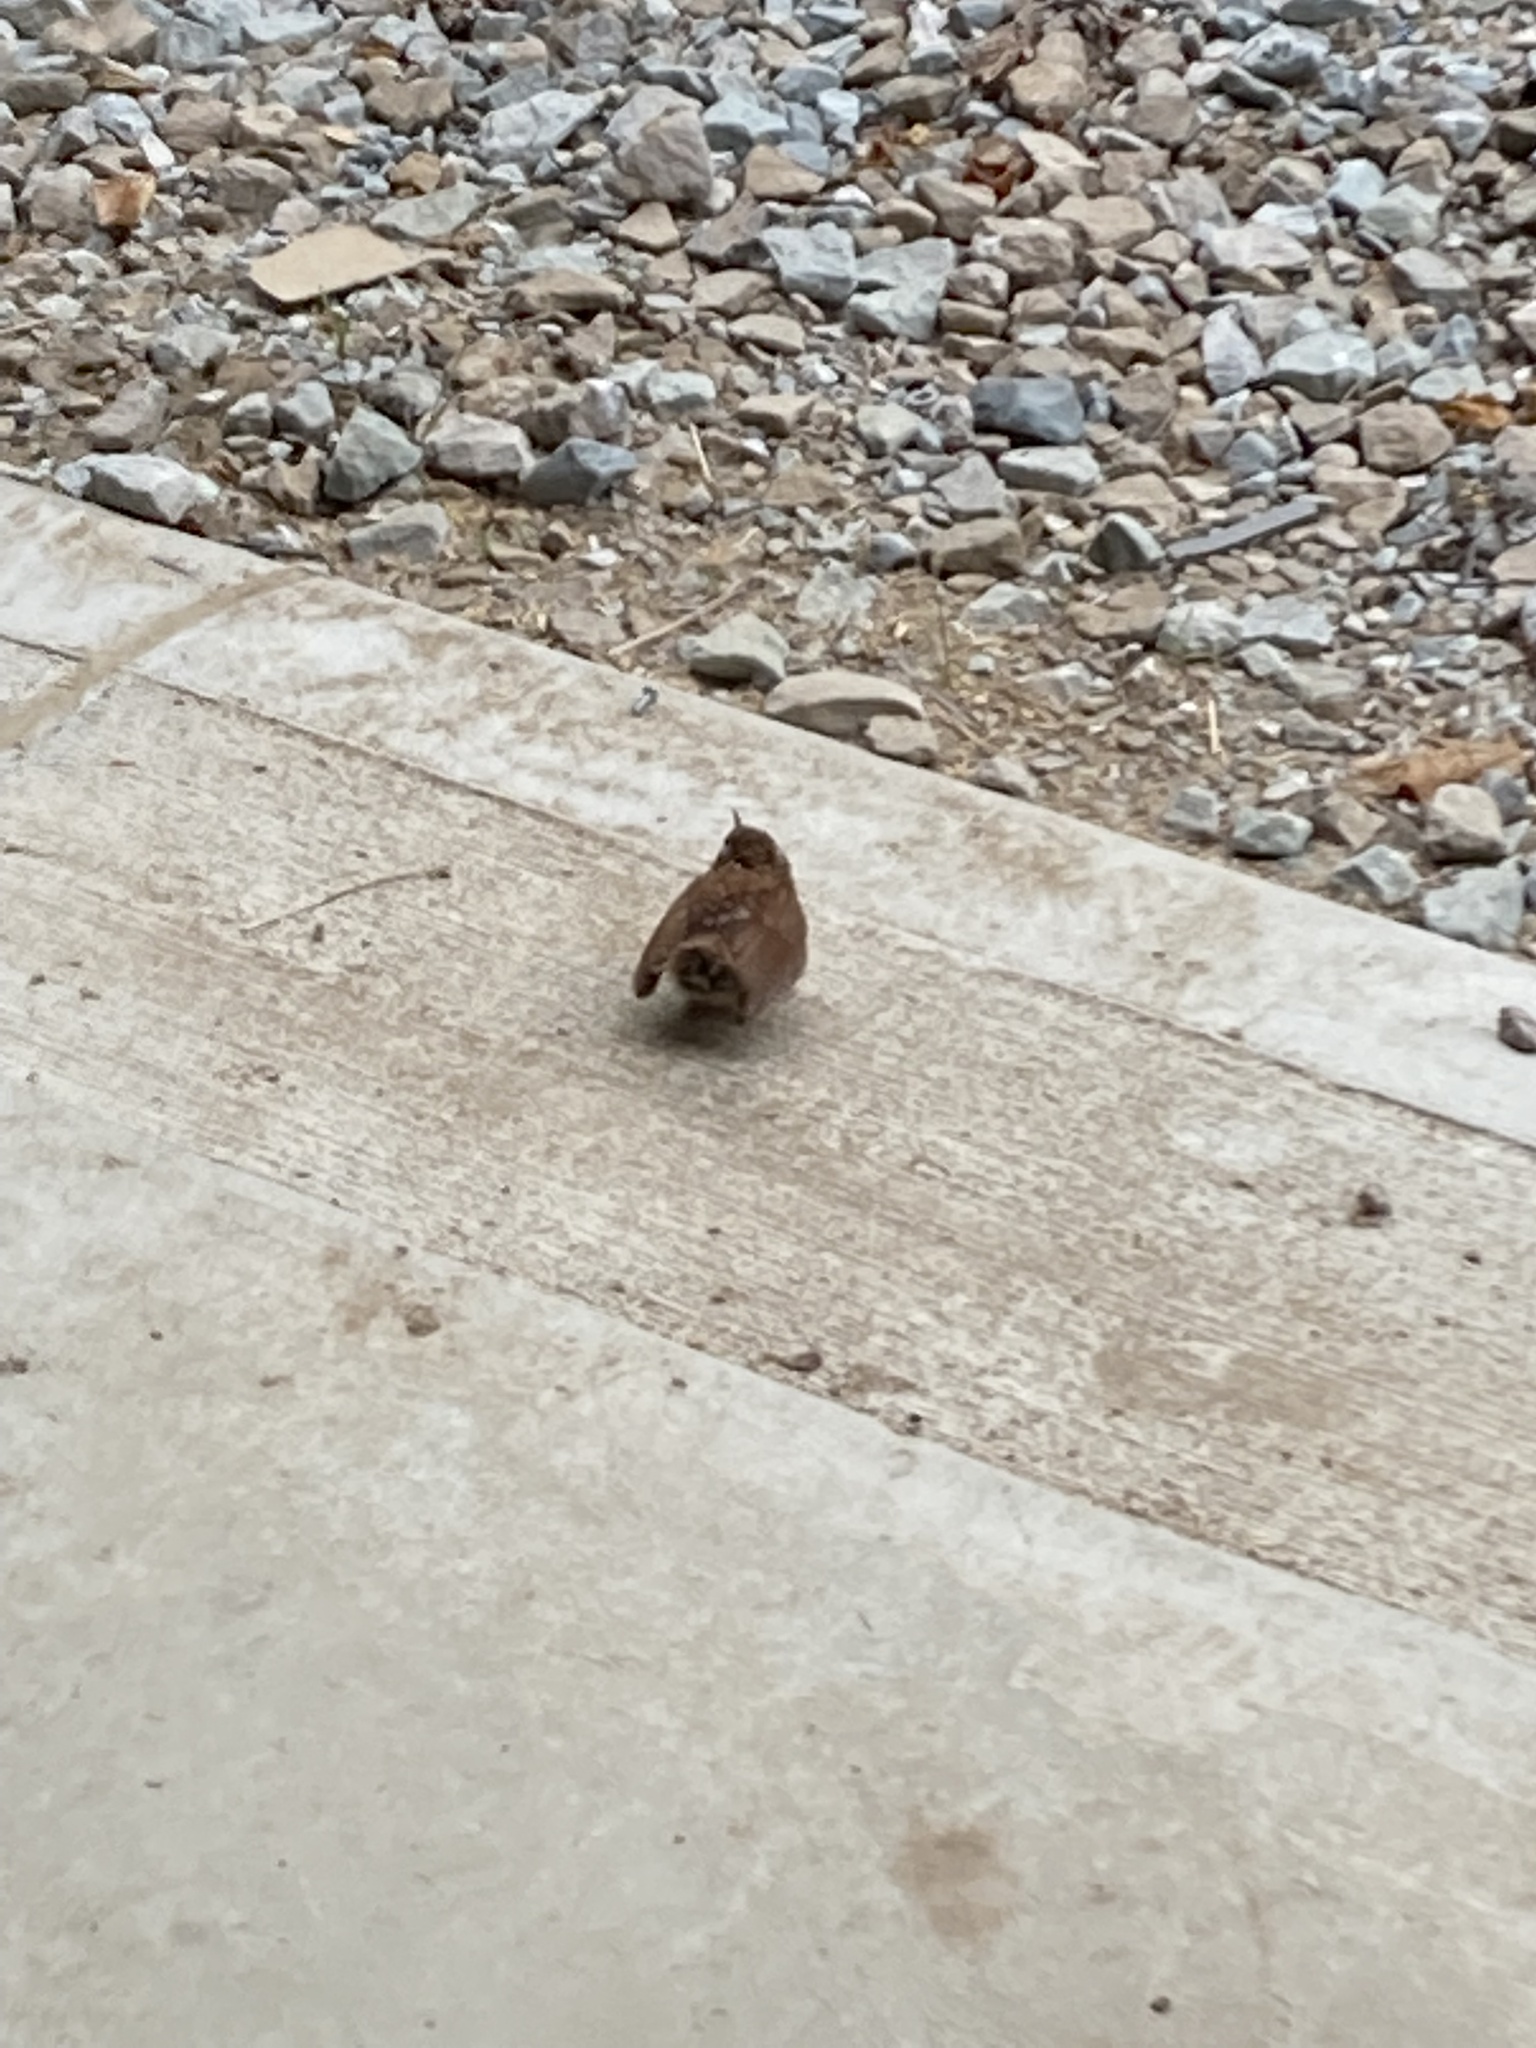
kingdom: Animalia
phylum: Chordata
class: Aves
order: Passeriformes
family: Troglodytidae
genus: Thryothorus
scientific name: Thryothorus ludovicianus
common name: Carolina wren
